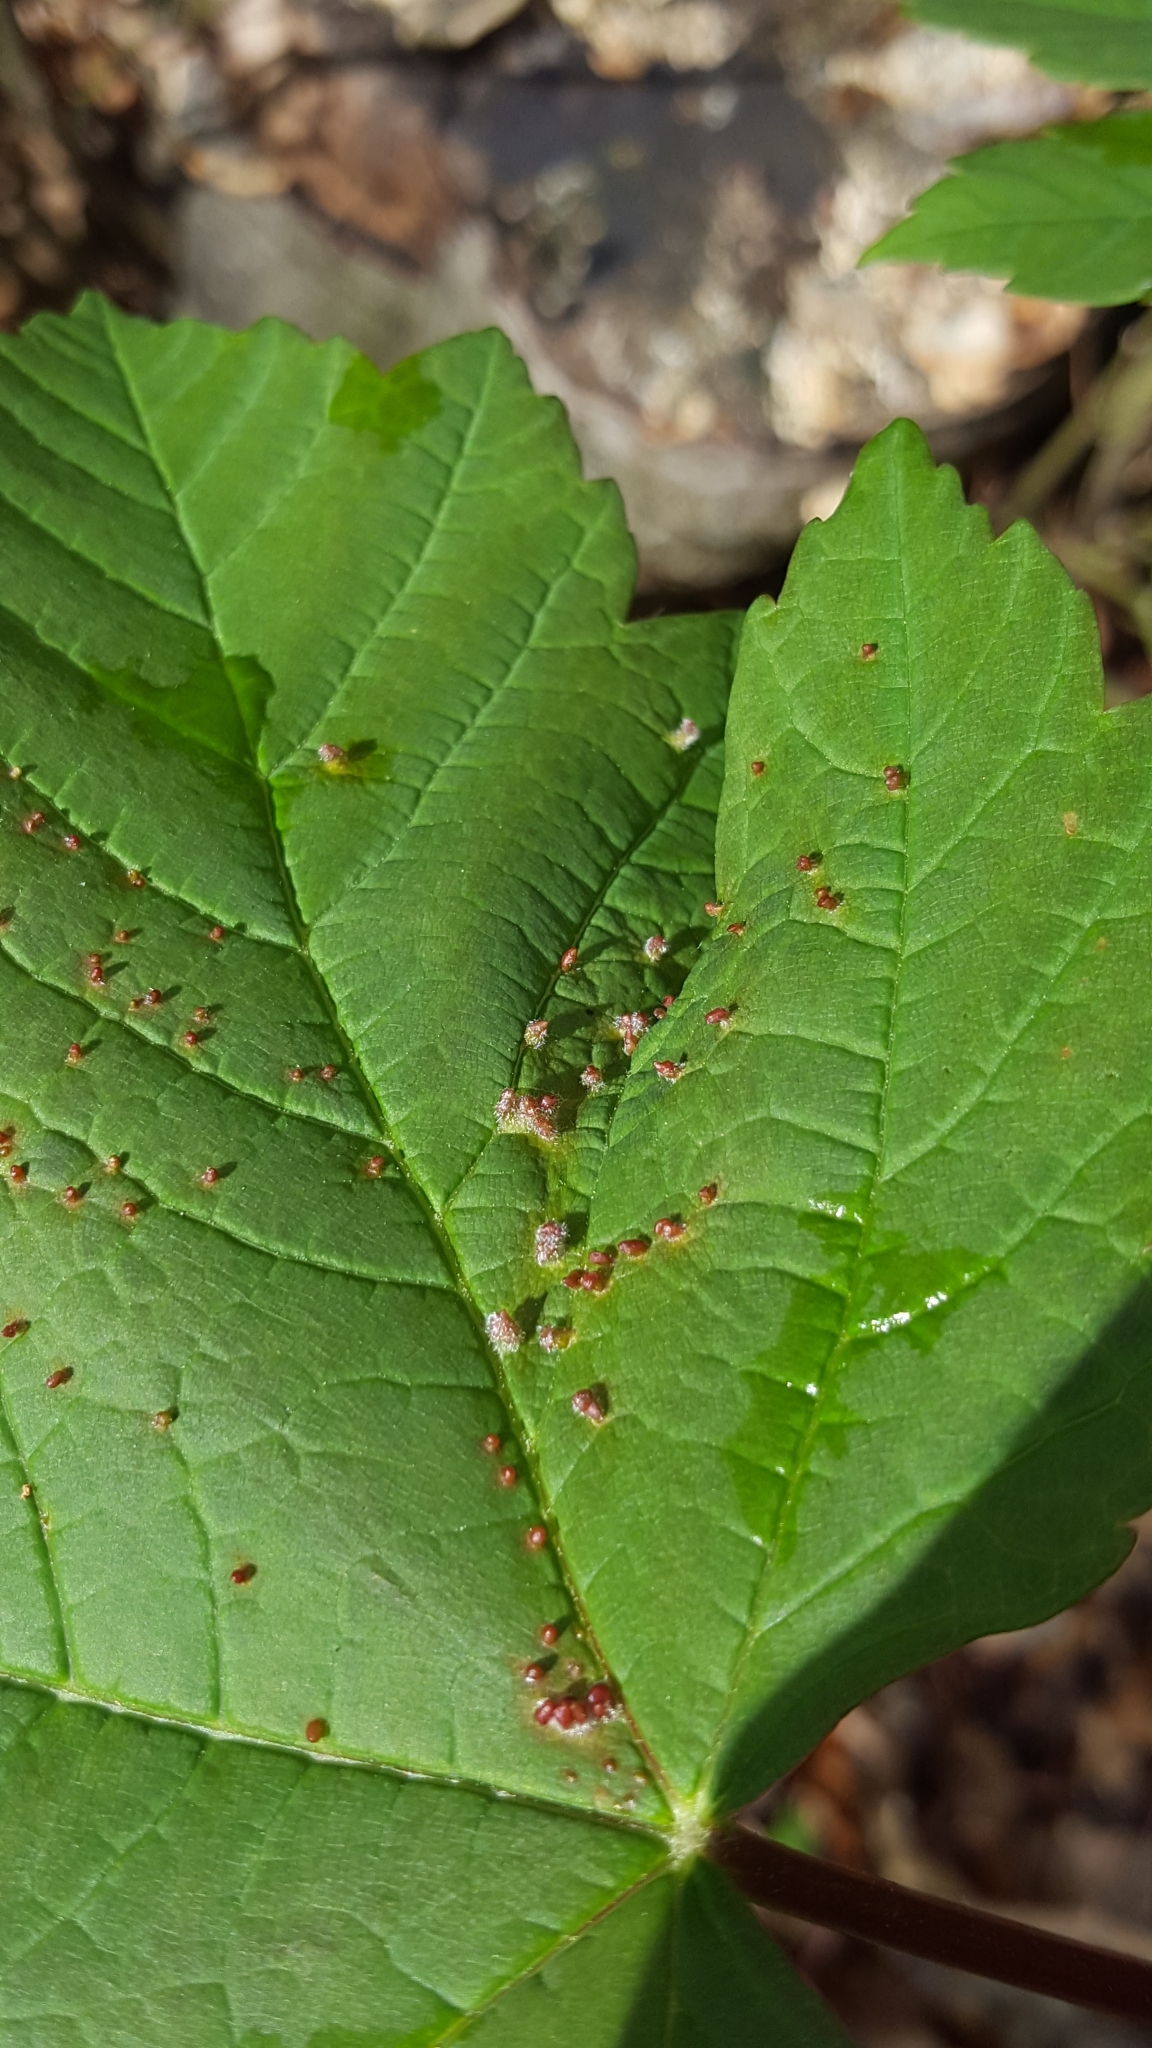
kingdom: Animalia
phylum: Arthropoda
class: Arachnida
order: Trombidiformes
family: Eriophyidae
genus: Aceria
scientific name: Aceria cephaloneus
